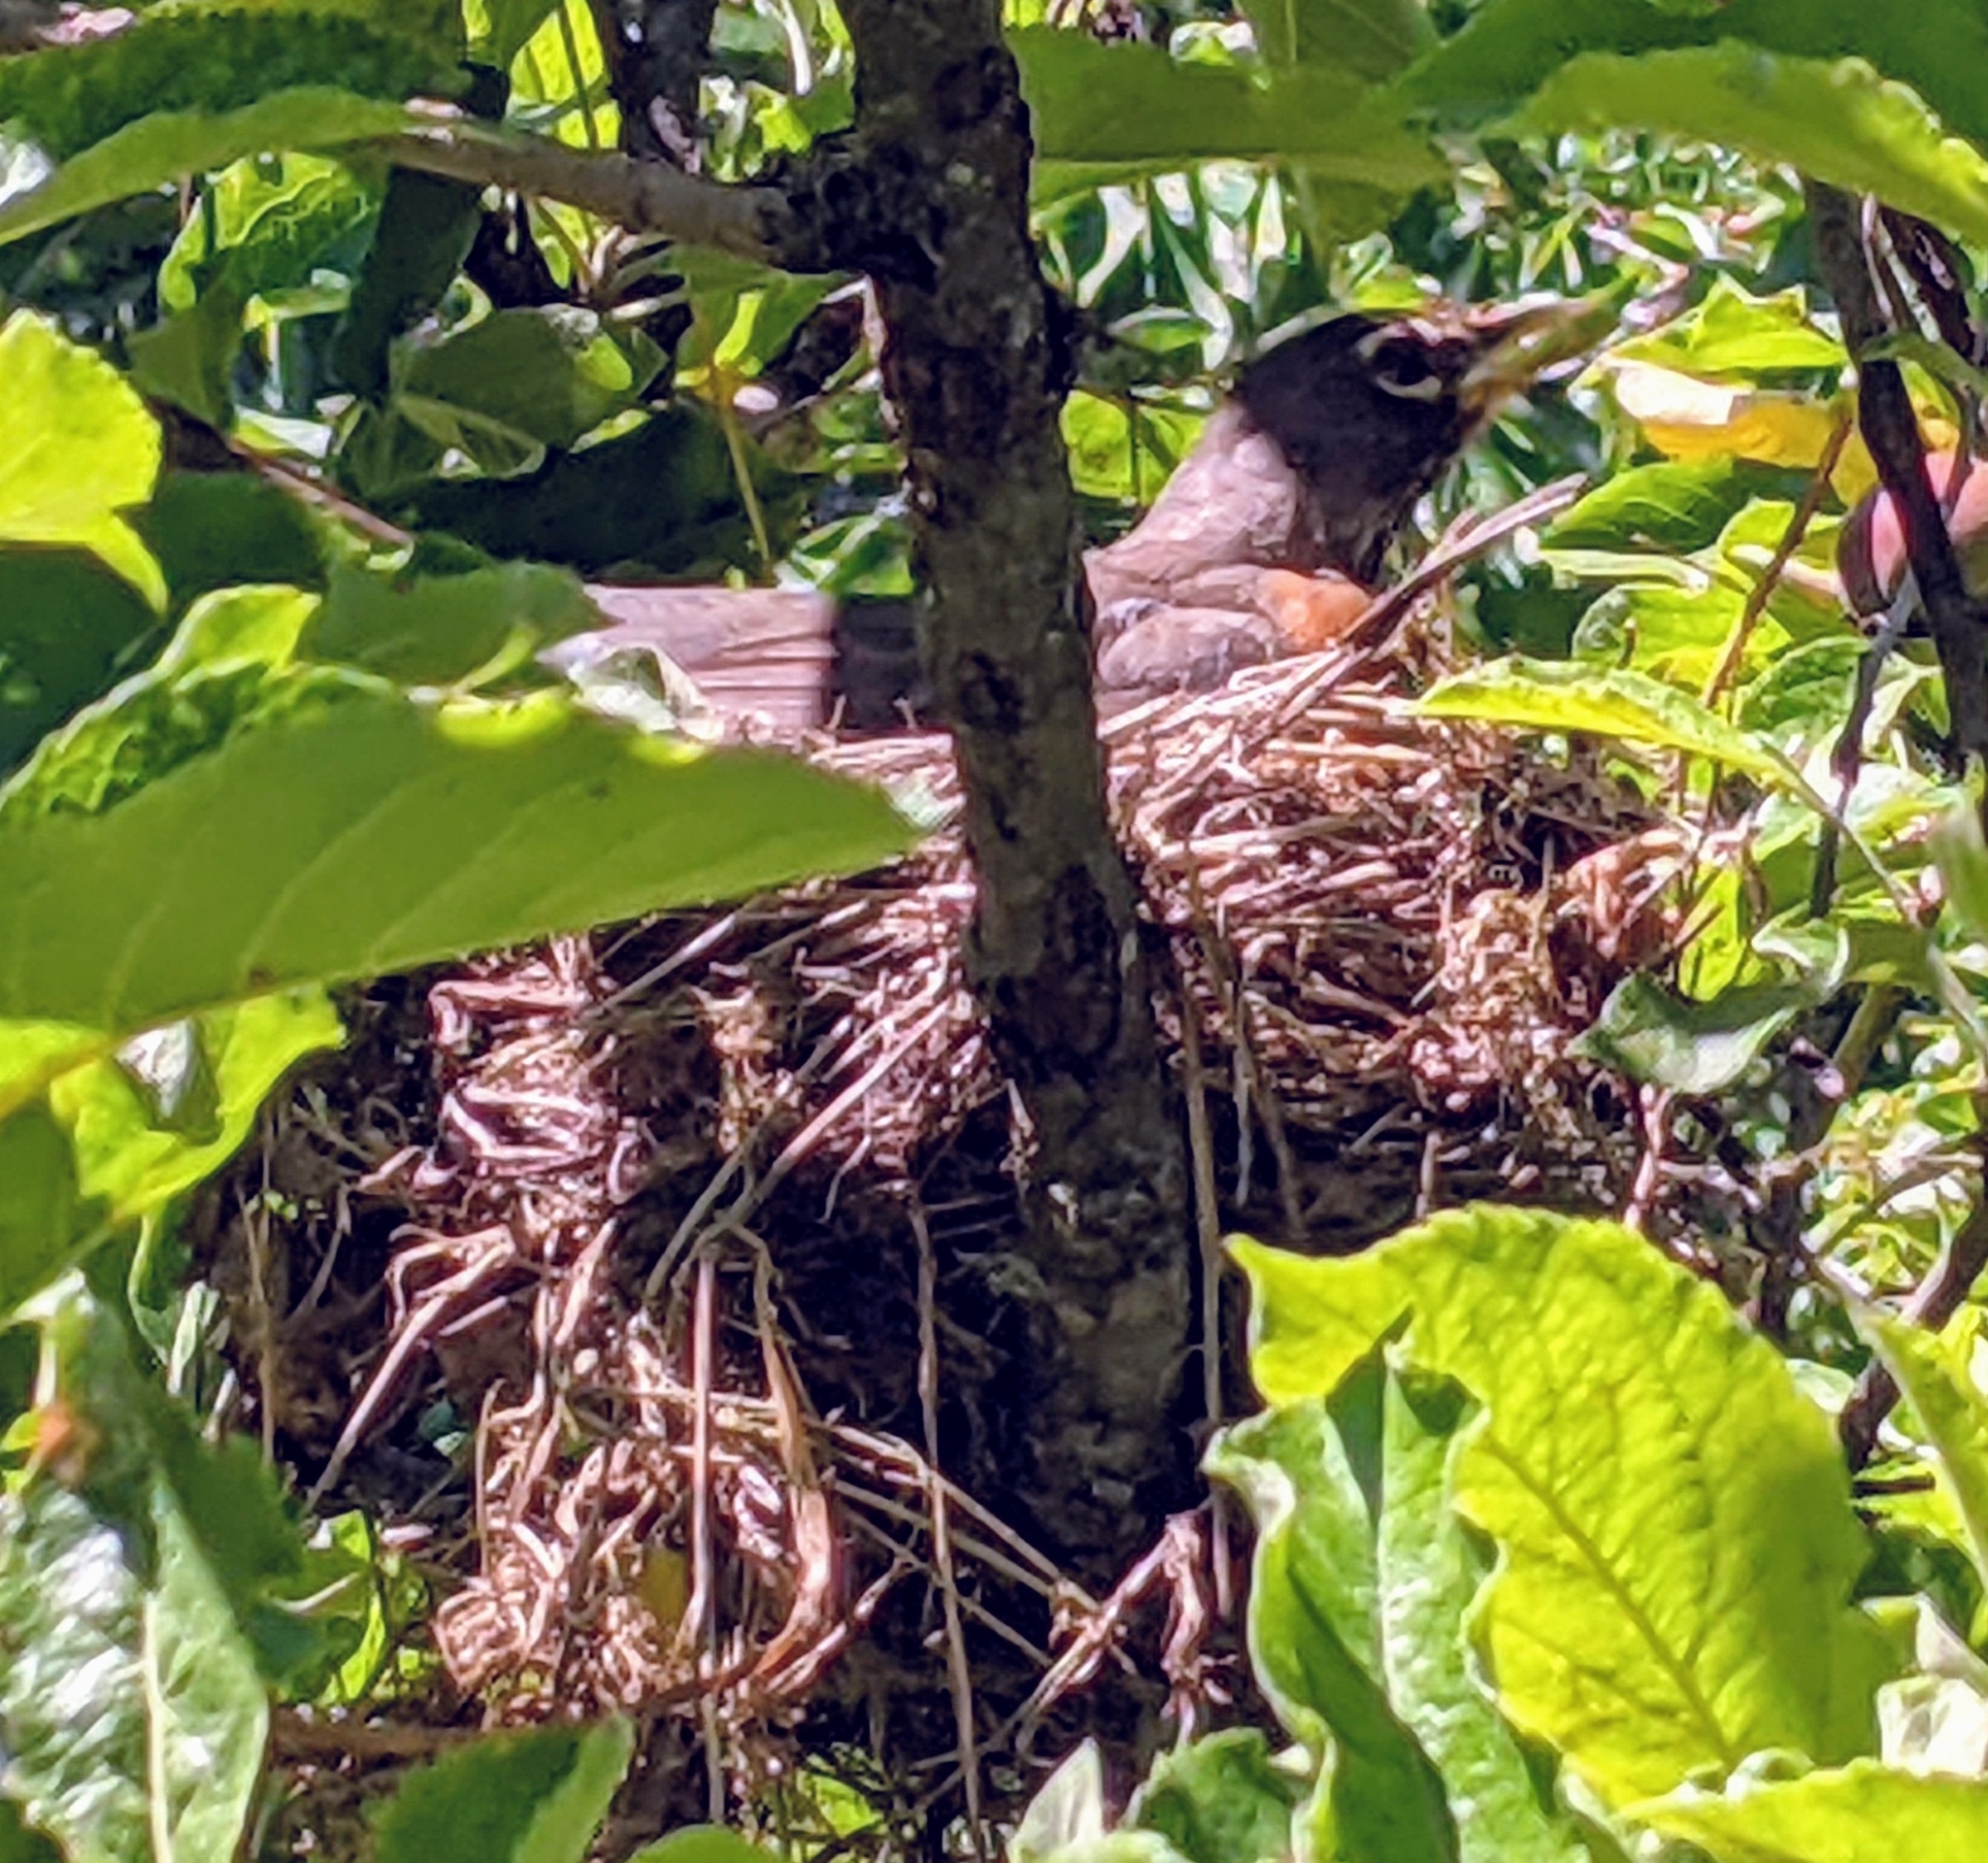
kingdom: Animalia
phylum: Chordata
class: Aves
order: Passeriformes
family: Turdidae
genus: Turdus
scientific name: Turdus migratorius
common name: American robin
